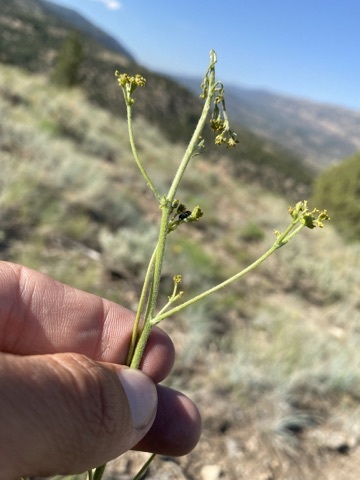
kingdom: Plantae
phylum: Tracheophyta
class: Magnoliopsida
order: Caryophyllales
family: Polygonaceae
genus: Eriogonum
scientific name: Eriogonum alatum
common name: Winged eriogonum
